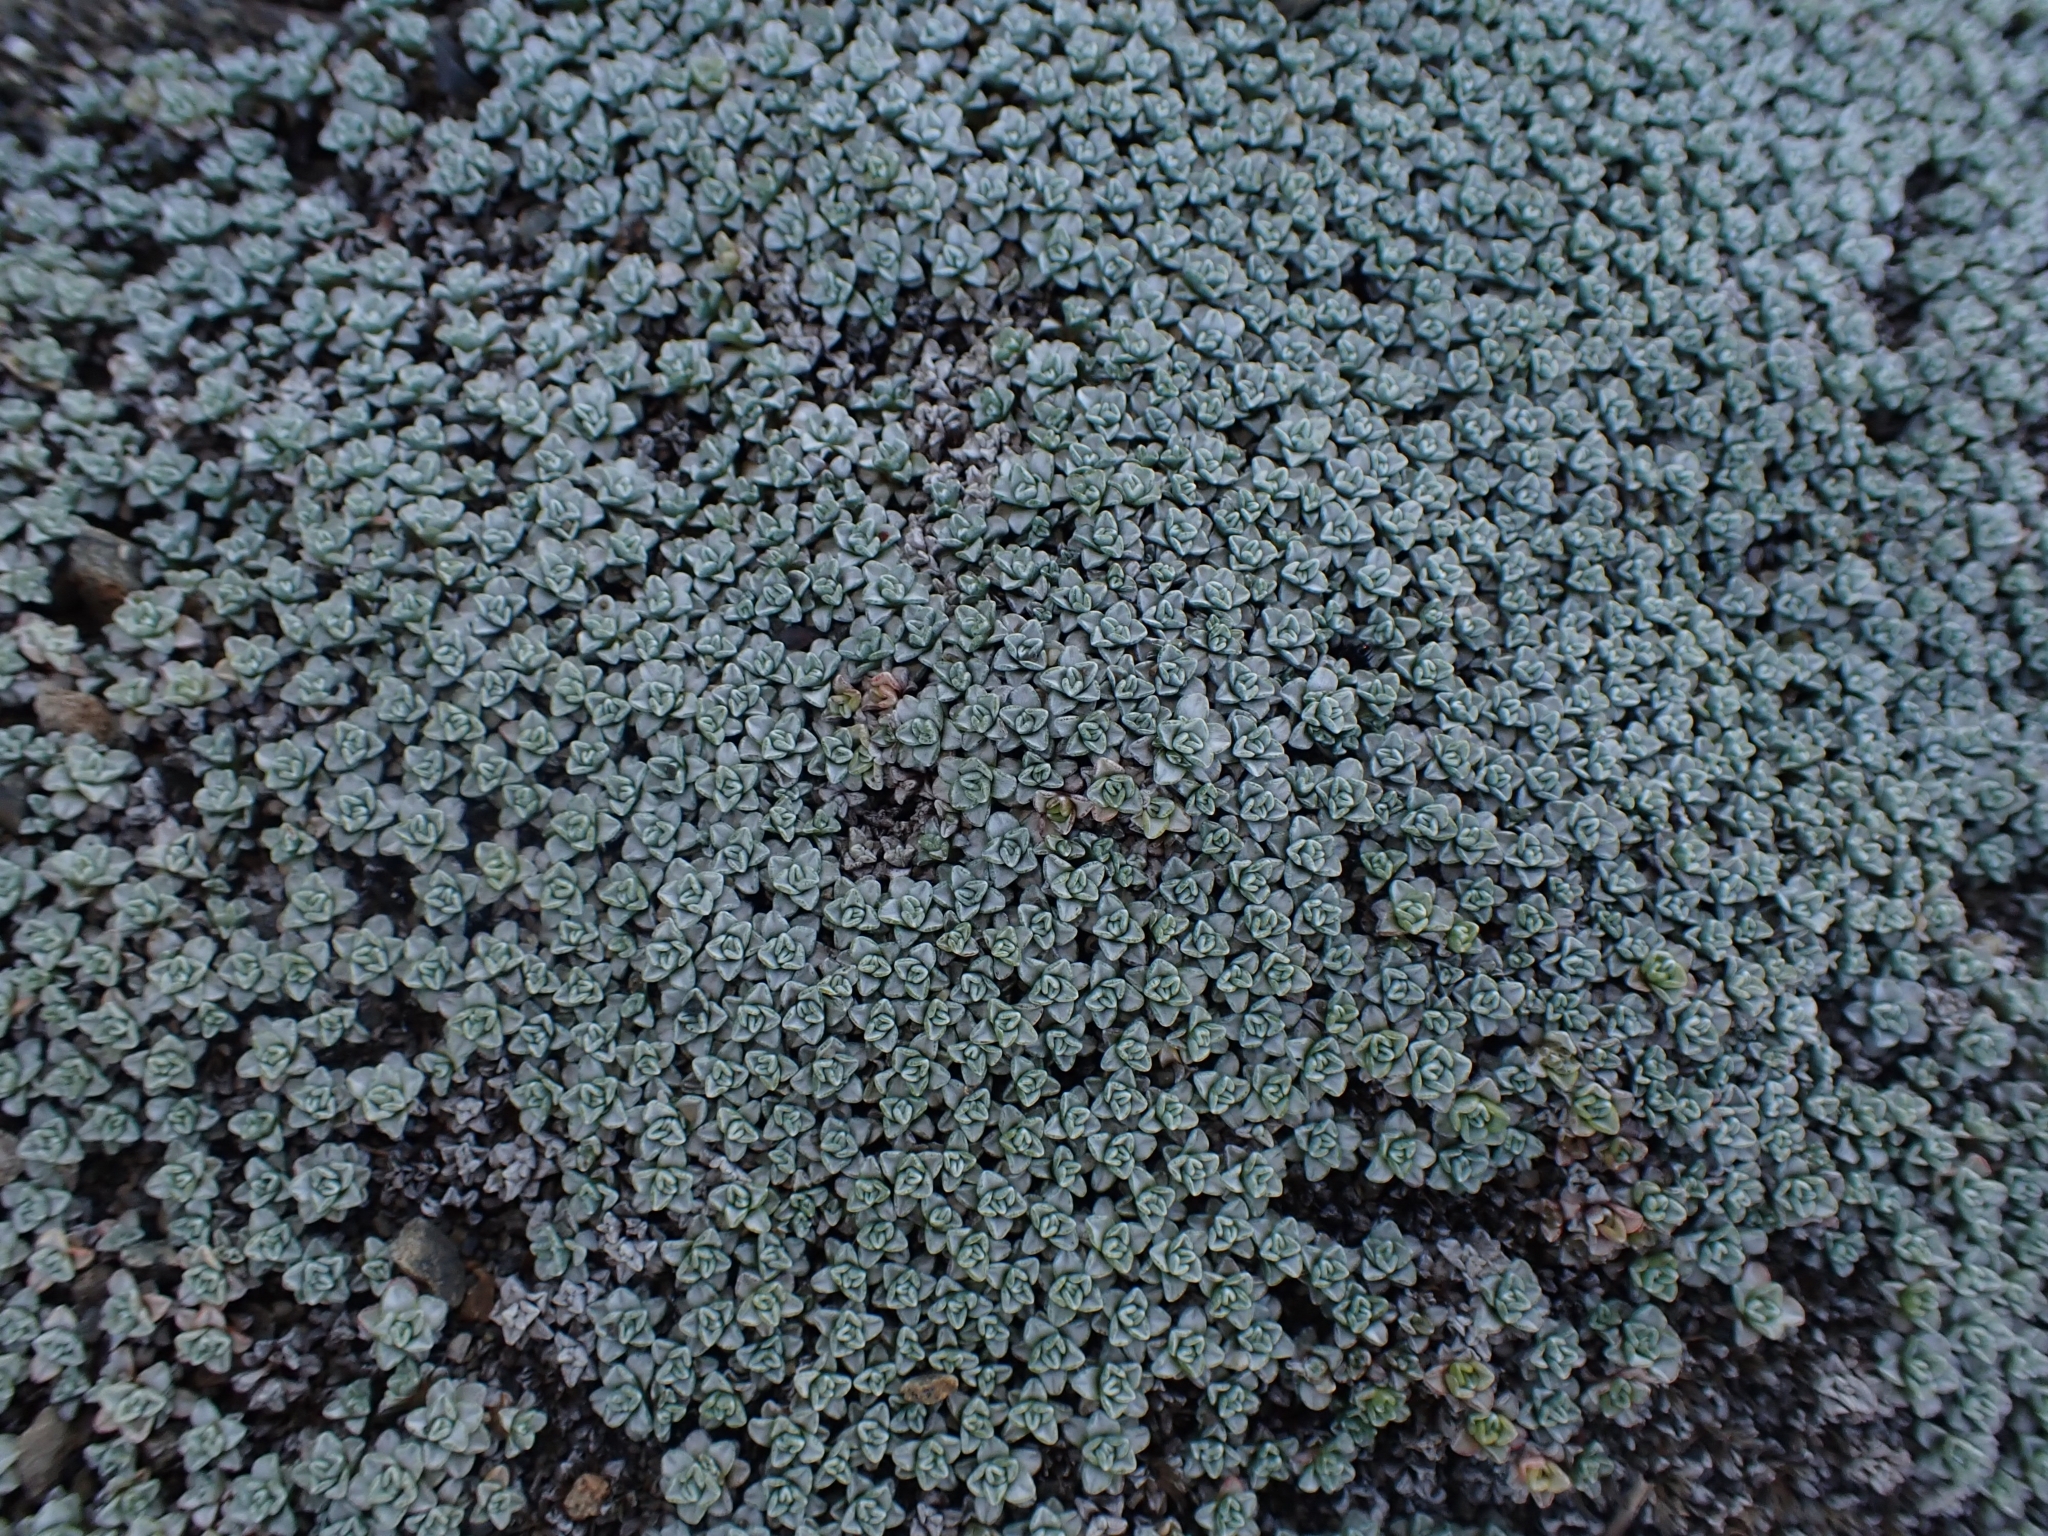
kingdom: Plantae
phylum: Tracheophyta
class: Magnoliopsida
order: Asterales
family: Asteraceae
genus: Raoulia
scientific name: Raoulia hookeri
